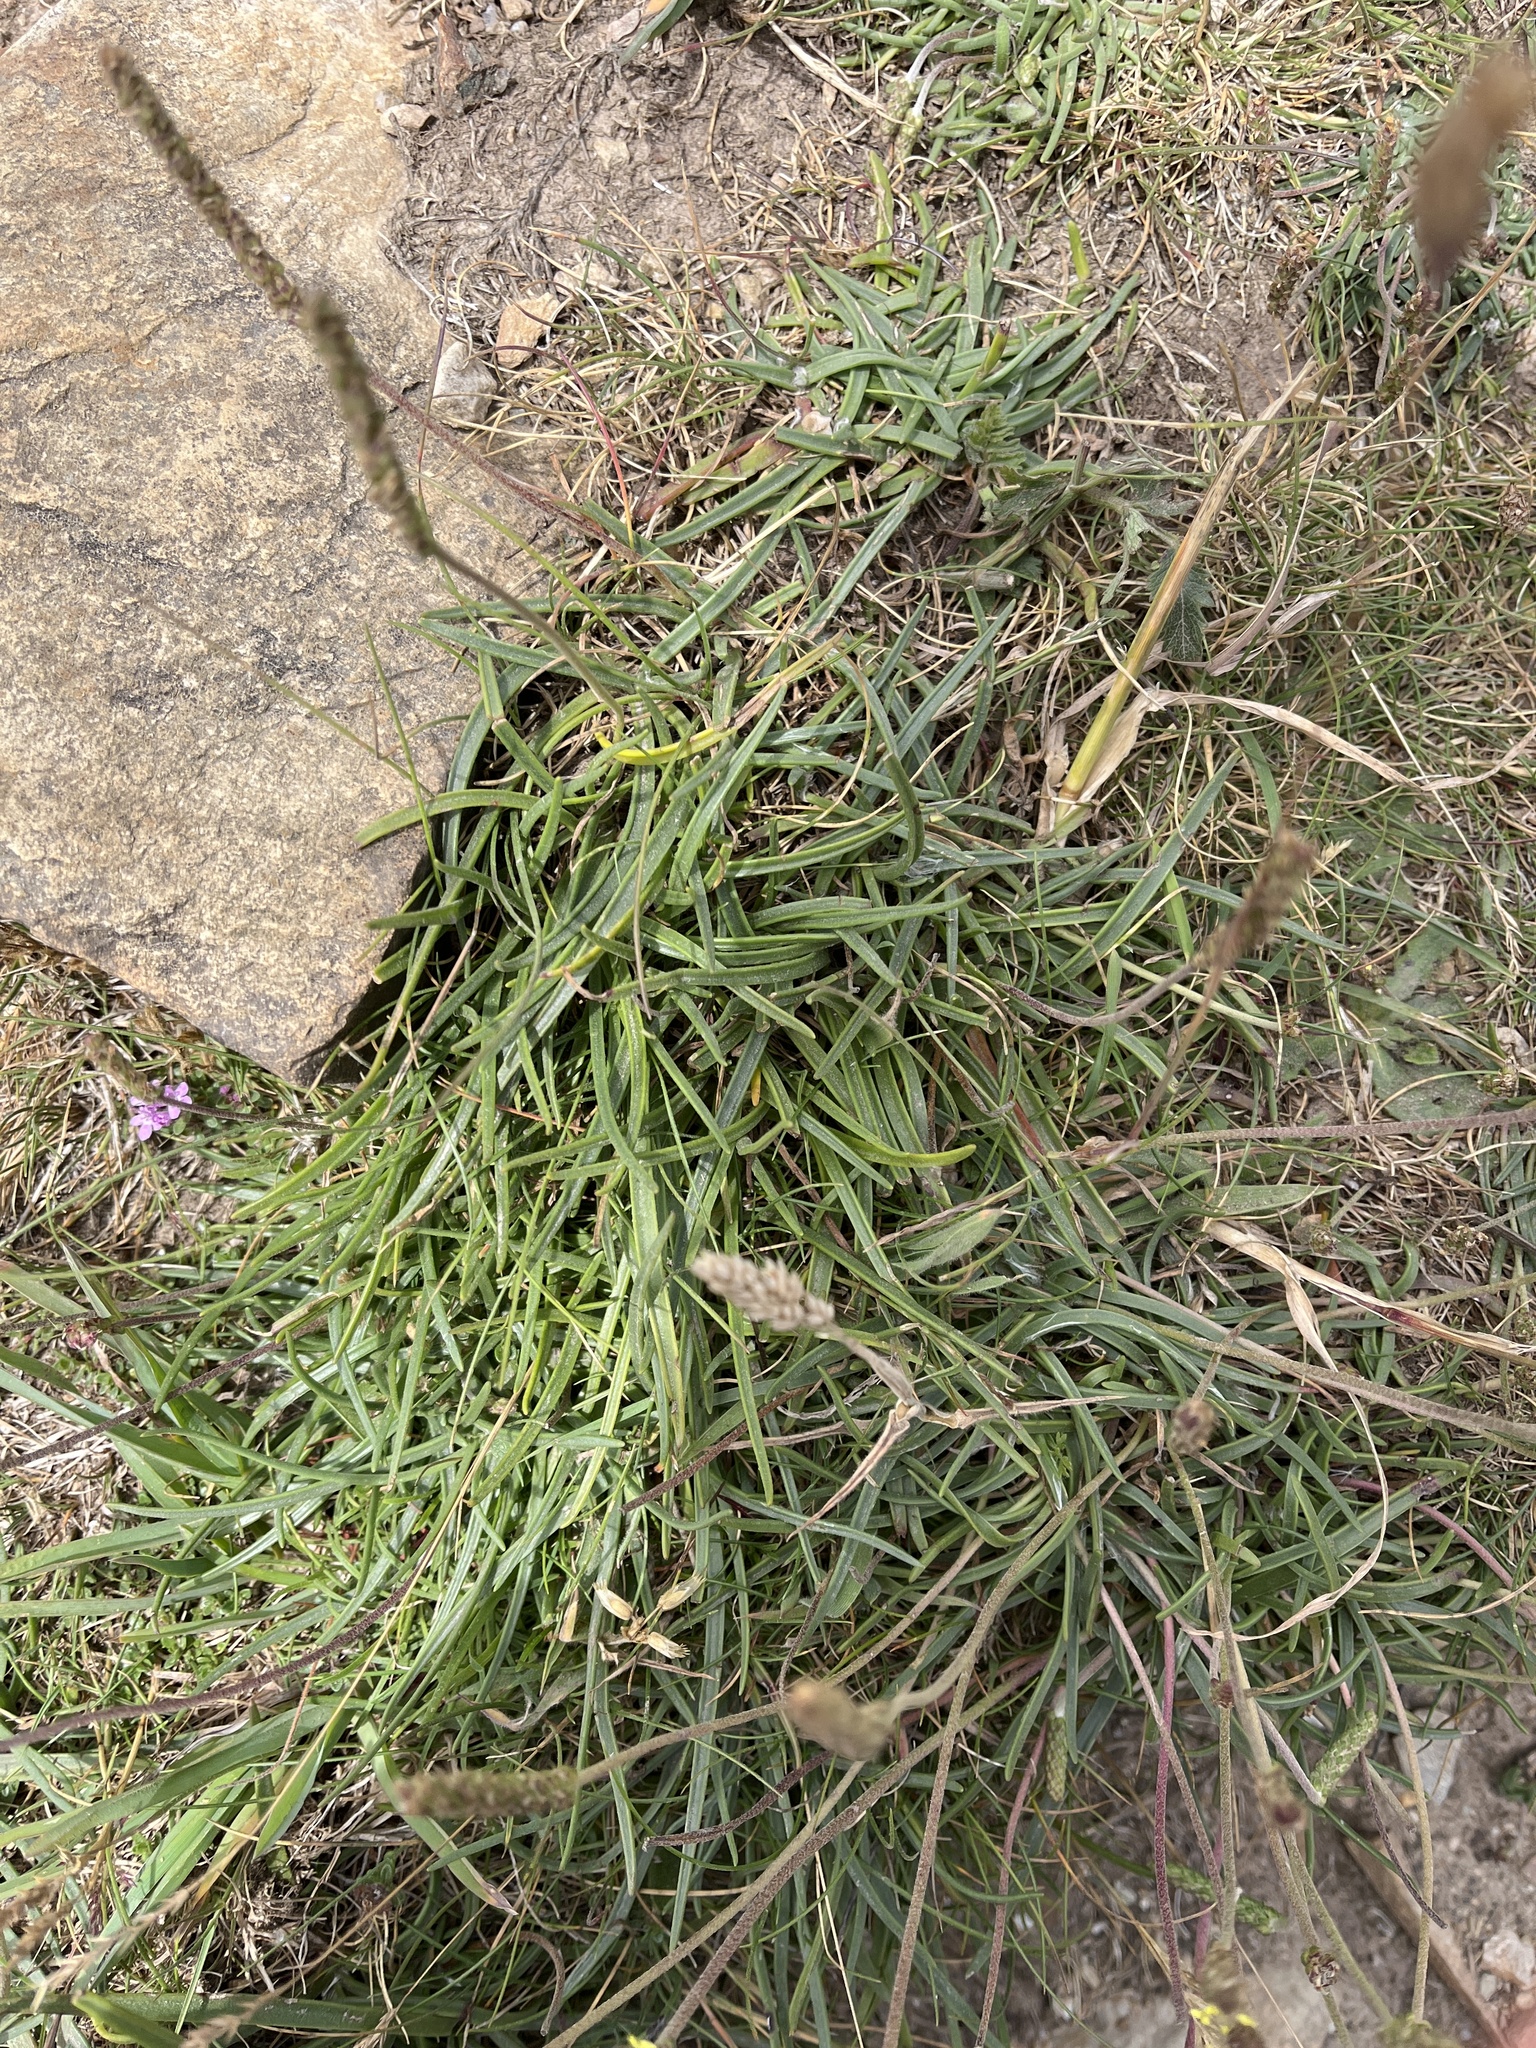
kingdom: Plantae
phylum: Tracheophyta
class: Magnoliopsida
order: Lamiales
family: Plantaginaceae
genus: Plantago
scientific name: Plantago maritima
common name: Sea plantain
